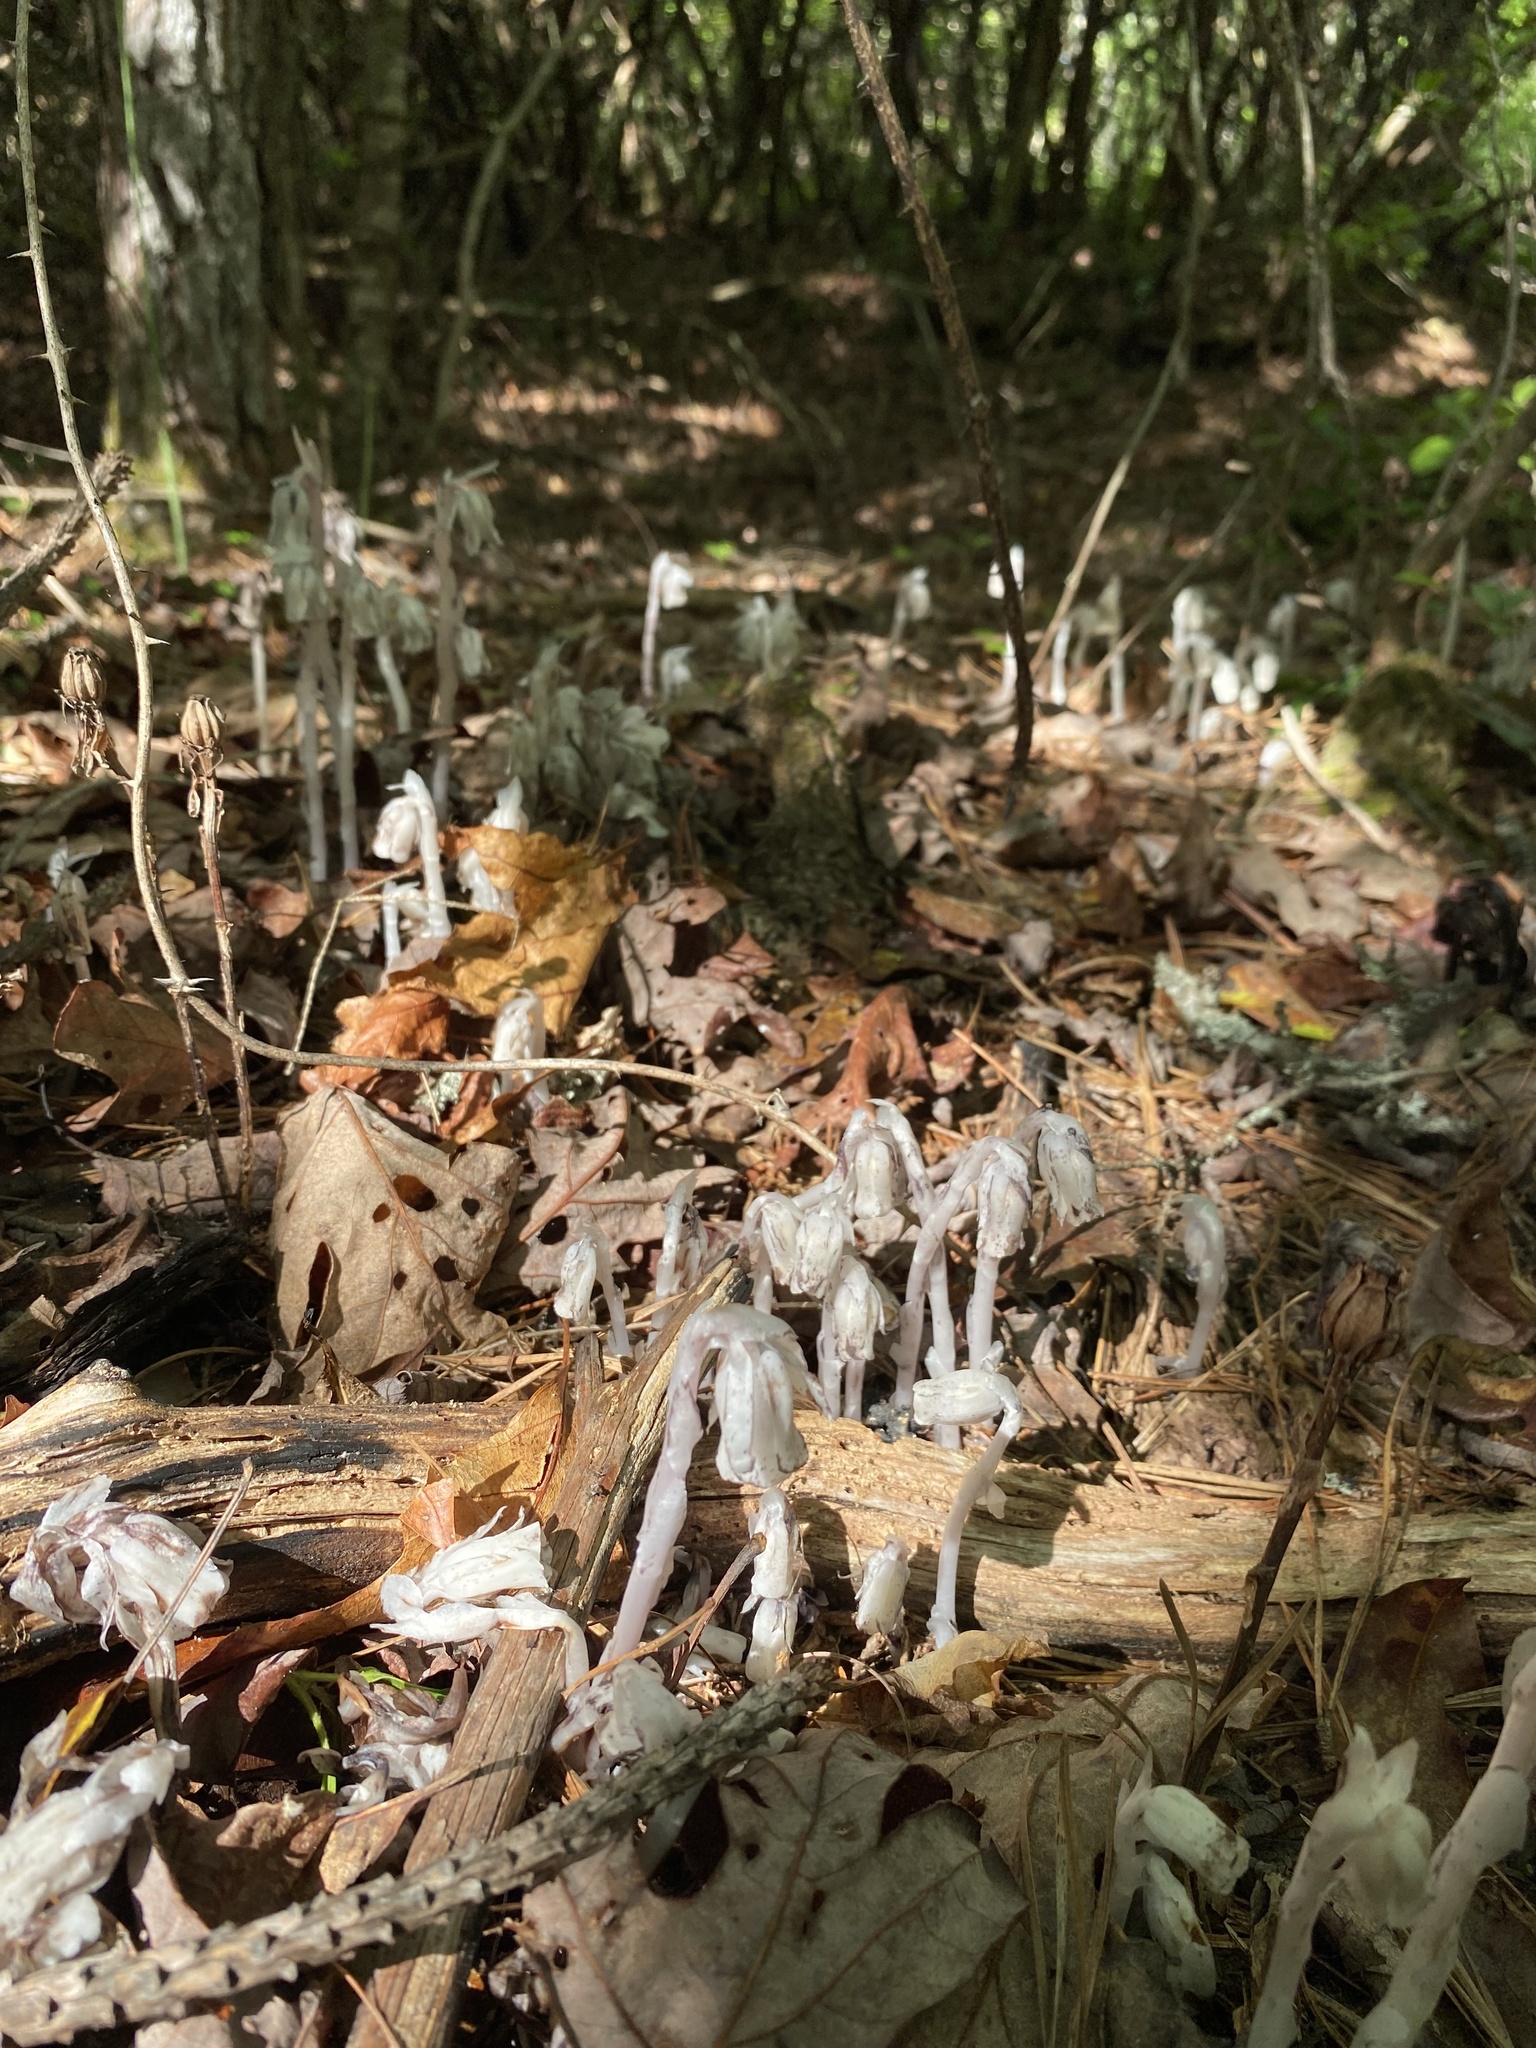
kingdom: Plantae
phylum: Tracheophyta
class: Magnoliopsida
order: Ericales
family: Ericaceae
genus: Monotropa
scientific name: Monotropa uniflora
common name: Convulsion root
